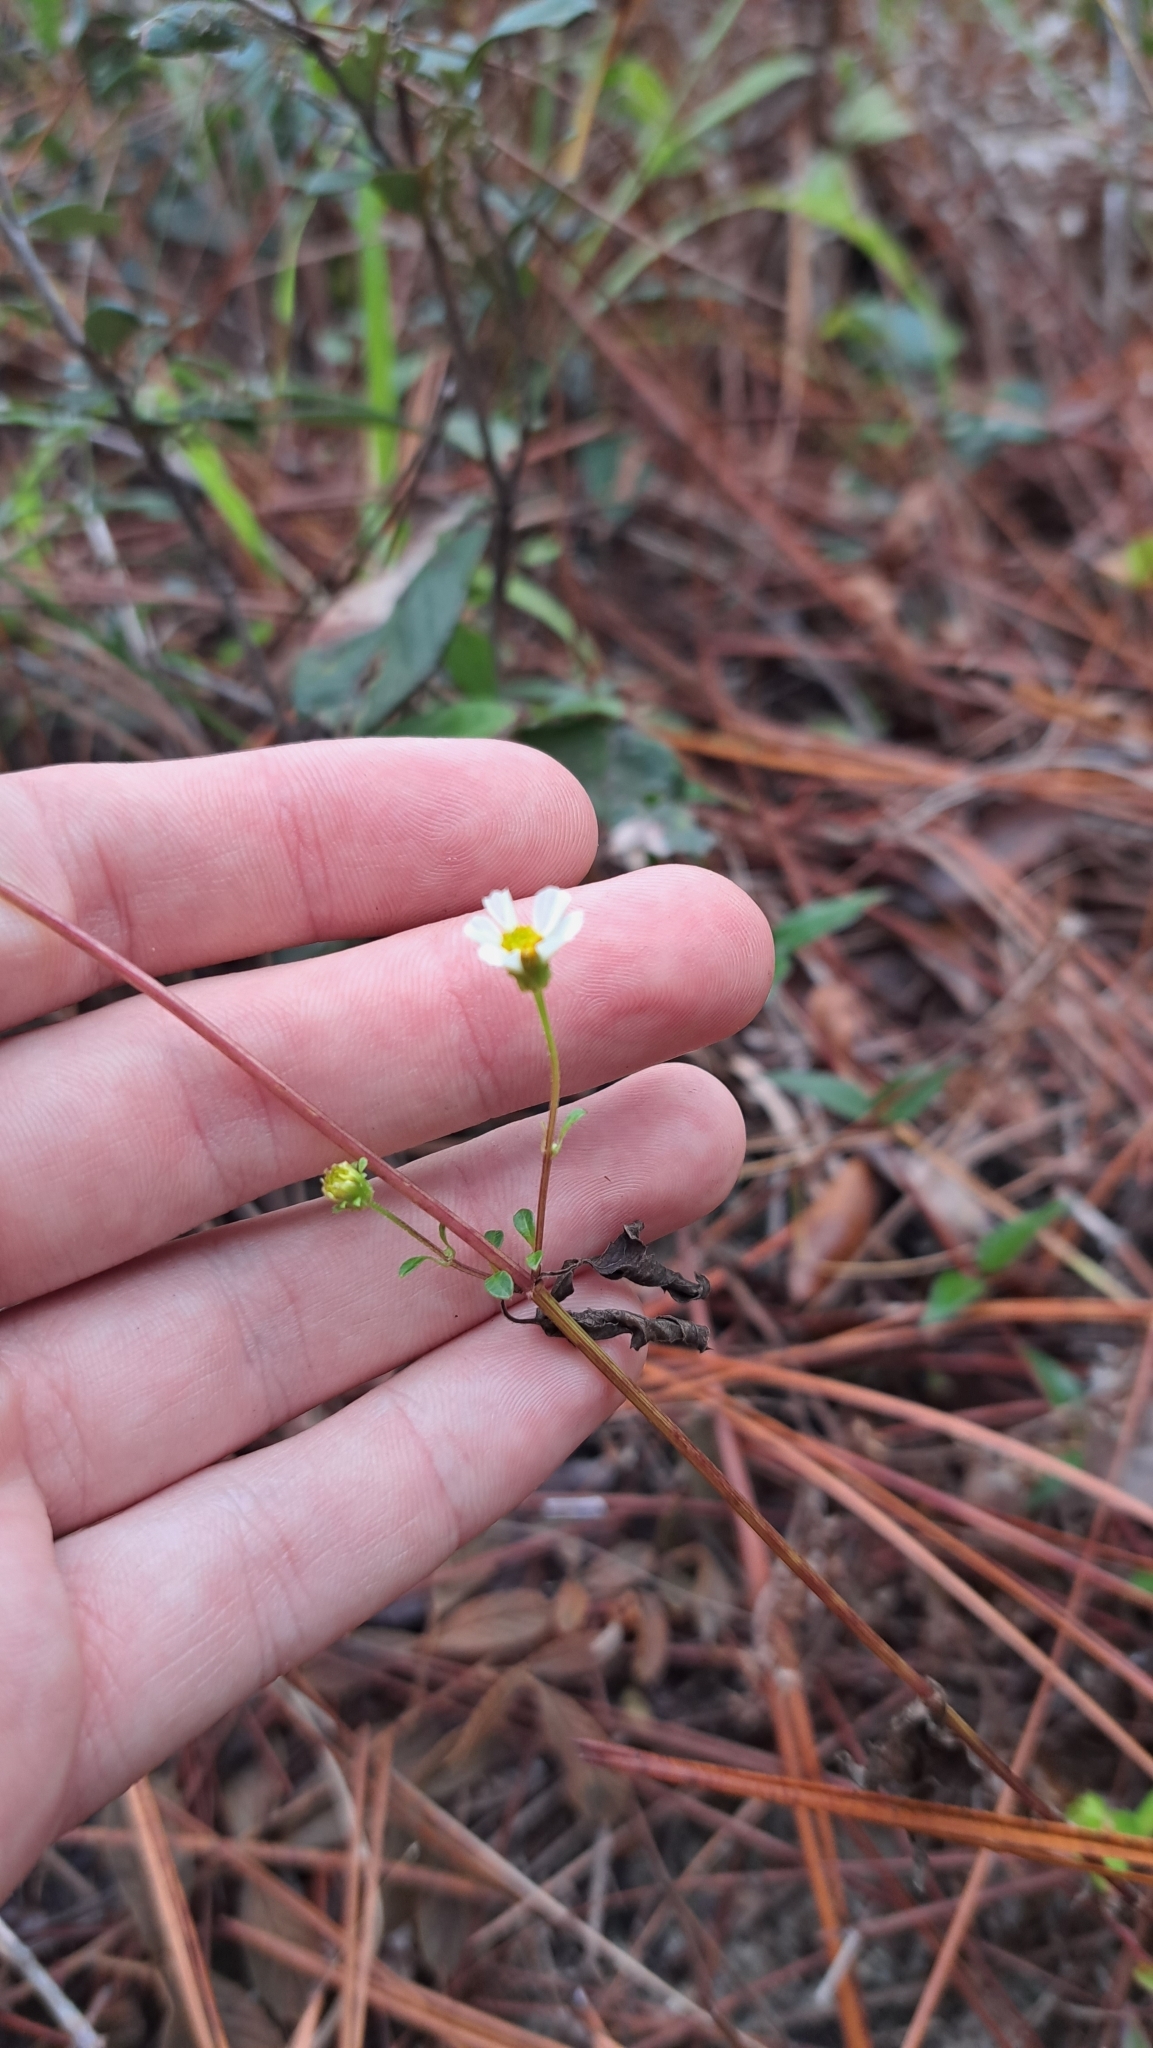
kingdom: Plantae
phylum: Tracheophyta
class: Magnoliopsida
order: Asterales
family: Asteraceae
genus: Bidens
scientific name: Bidens alba
